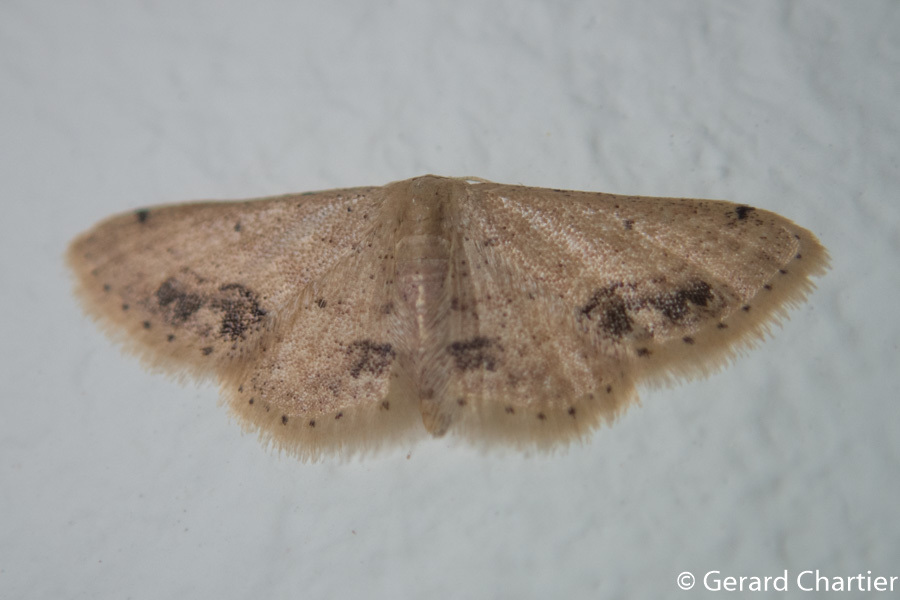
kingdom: Animalia
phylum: Arthropoda
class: Insecta
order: Lepidoptera
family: Geometridae
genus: Idaea
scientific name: Idaea chotaria
